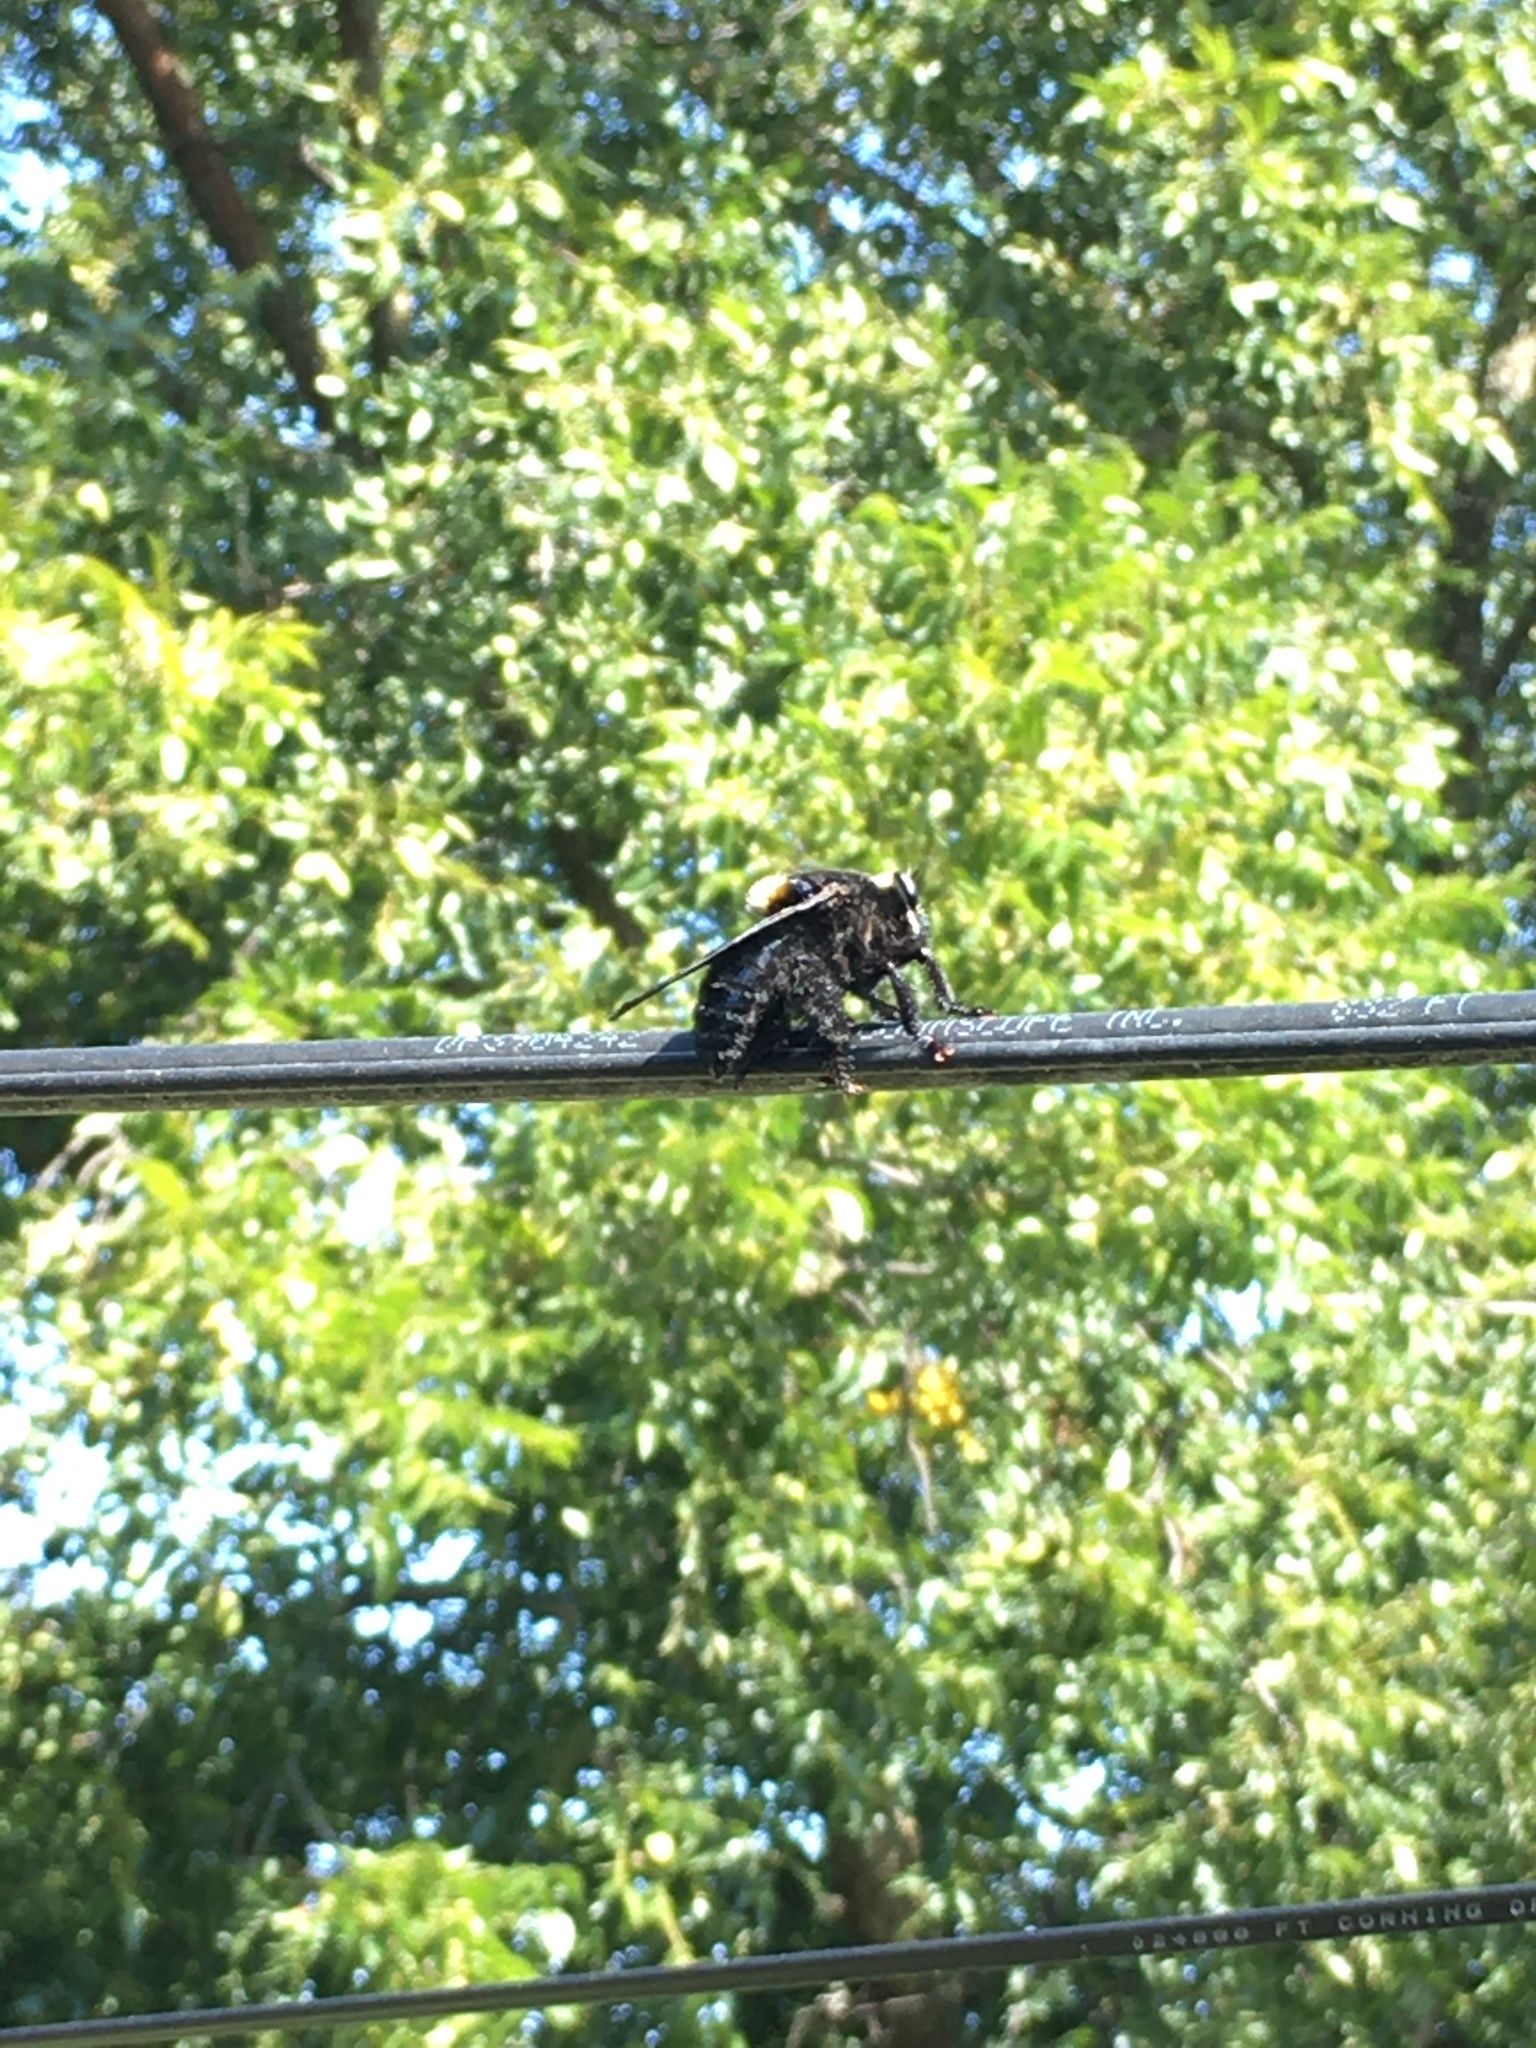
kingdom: Animalia
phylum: Arthropoda
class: Insecta
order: Diptera
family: Asilidae
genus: Mallophora
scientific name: Mallophora leschenaultii
